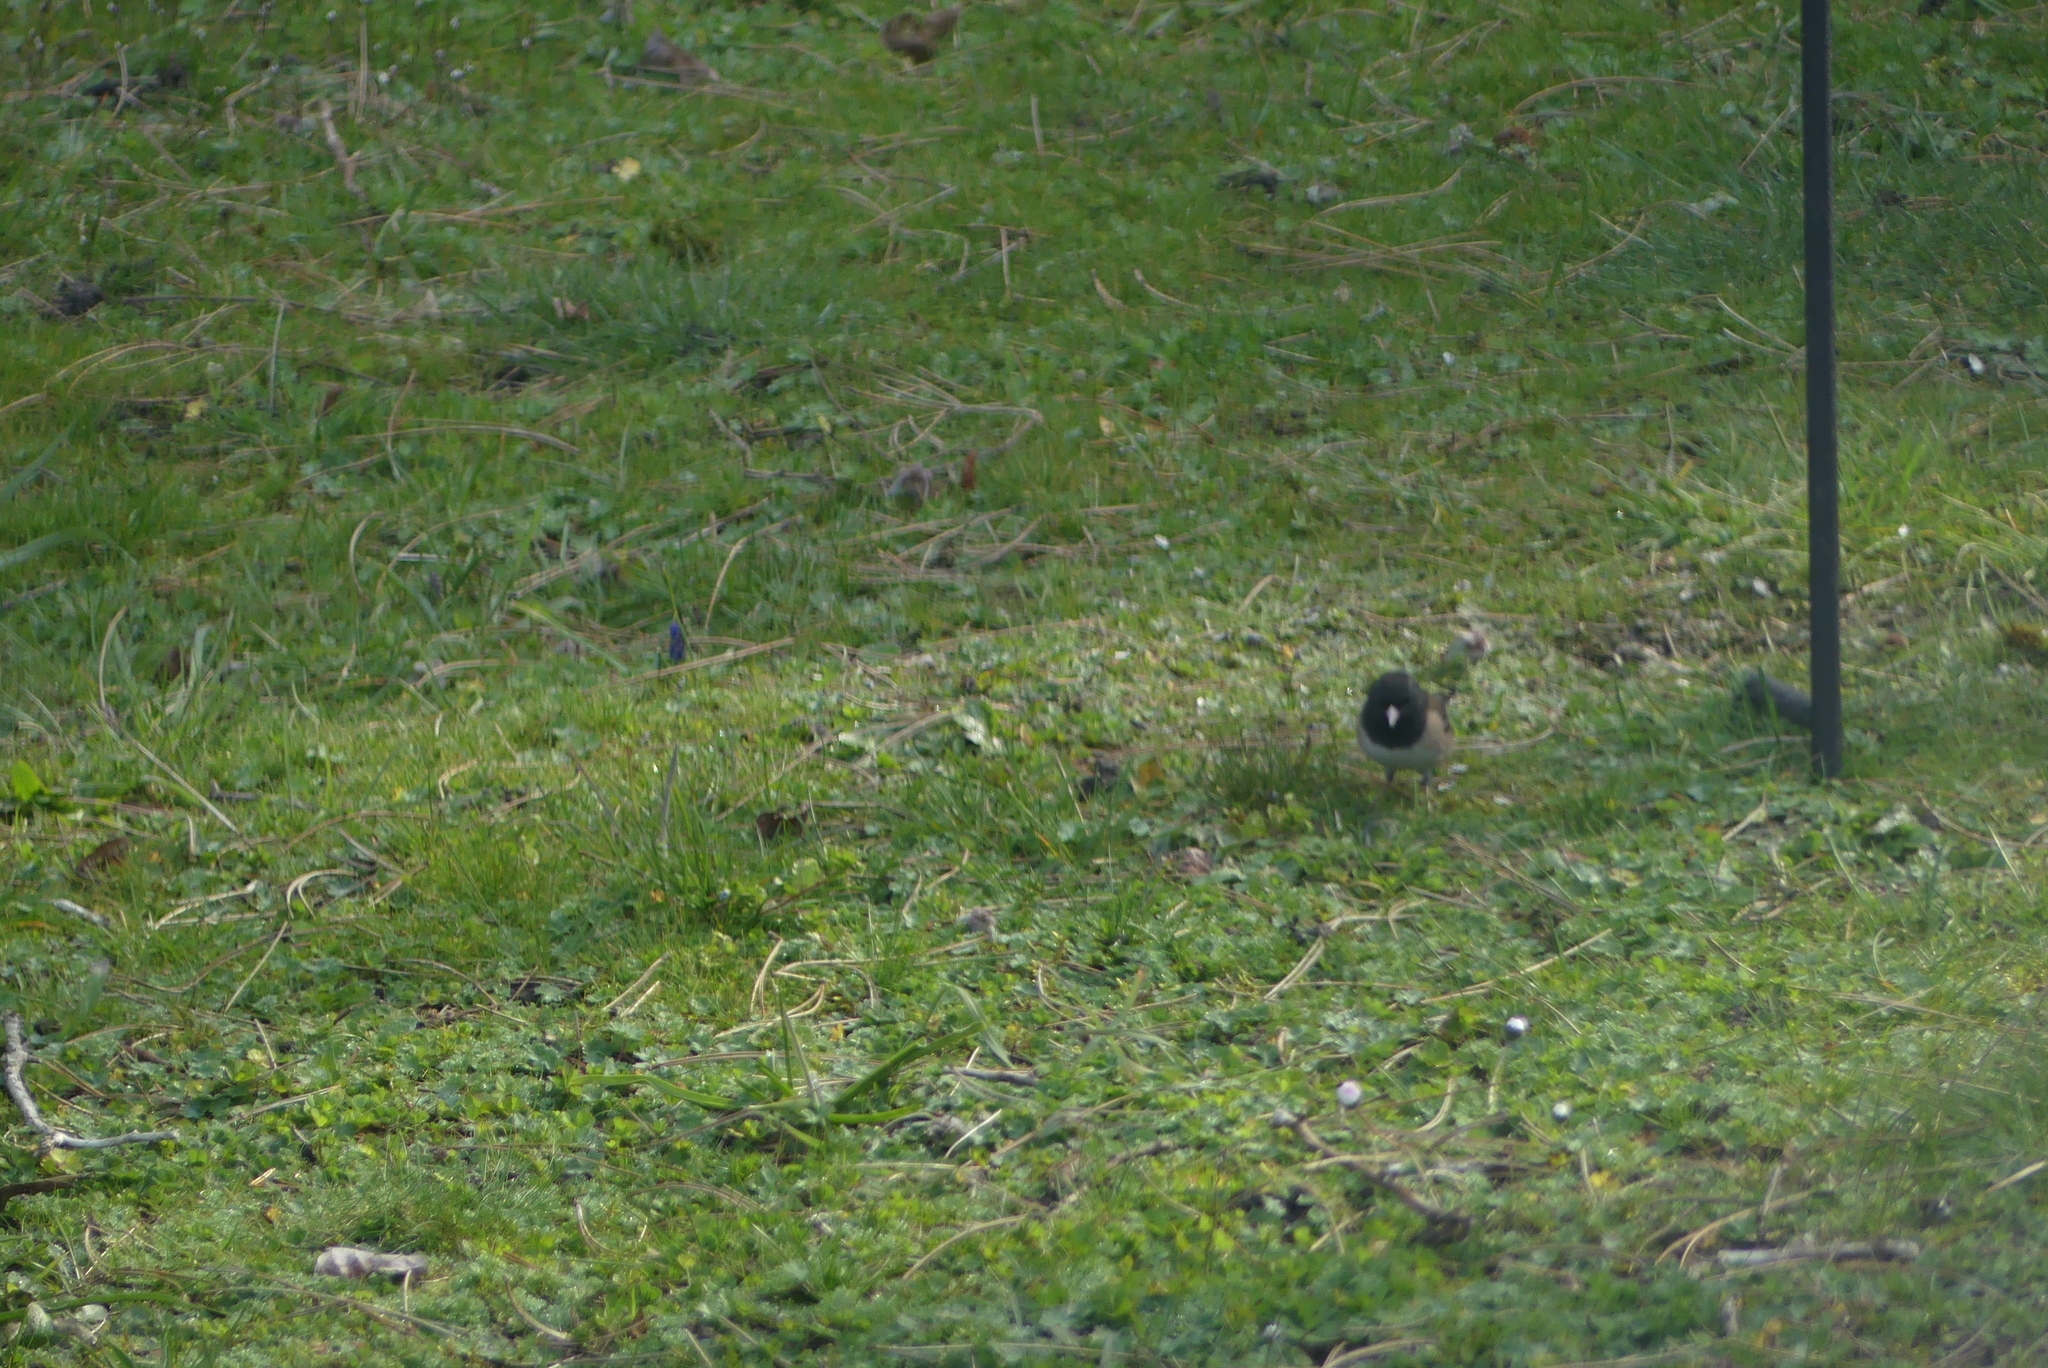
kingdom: Animalia
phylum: Chordata
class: Aves
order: Passeriformes
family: Passerellidae
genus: Junco
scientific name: Junco hyemalis
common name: Dark-eyed junco
